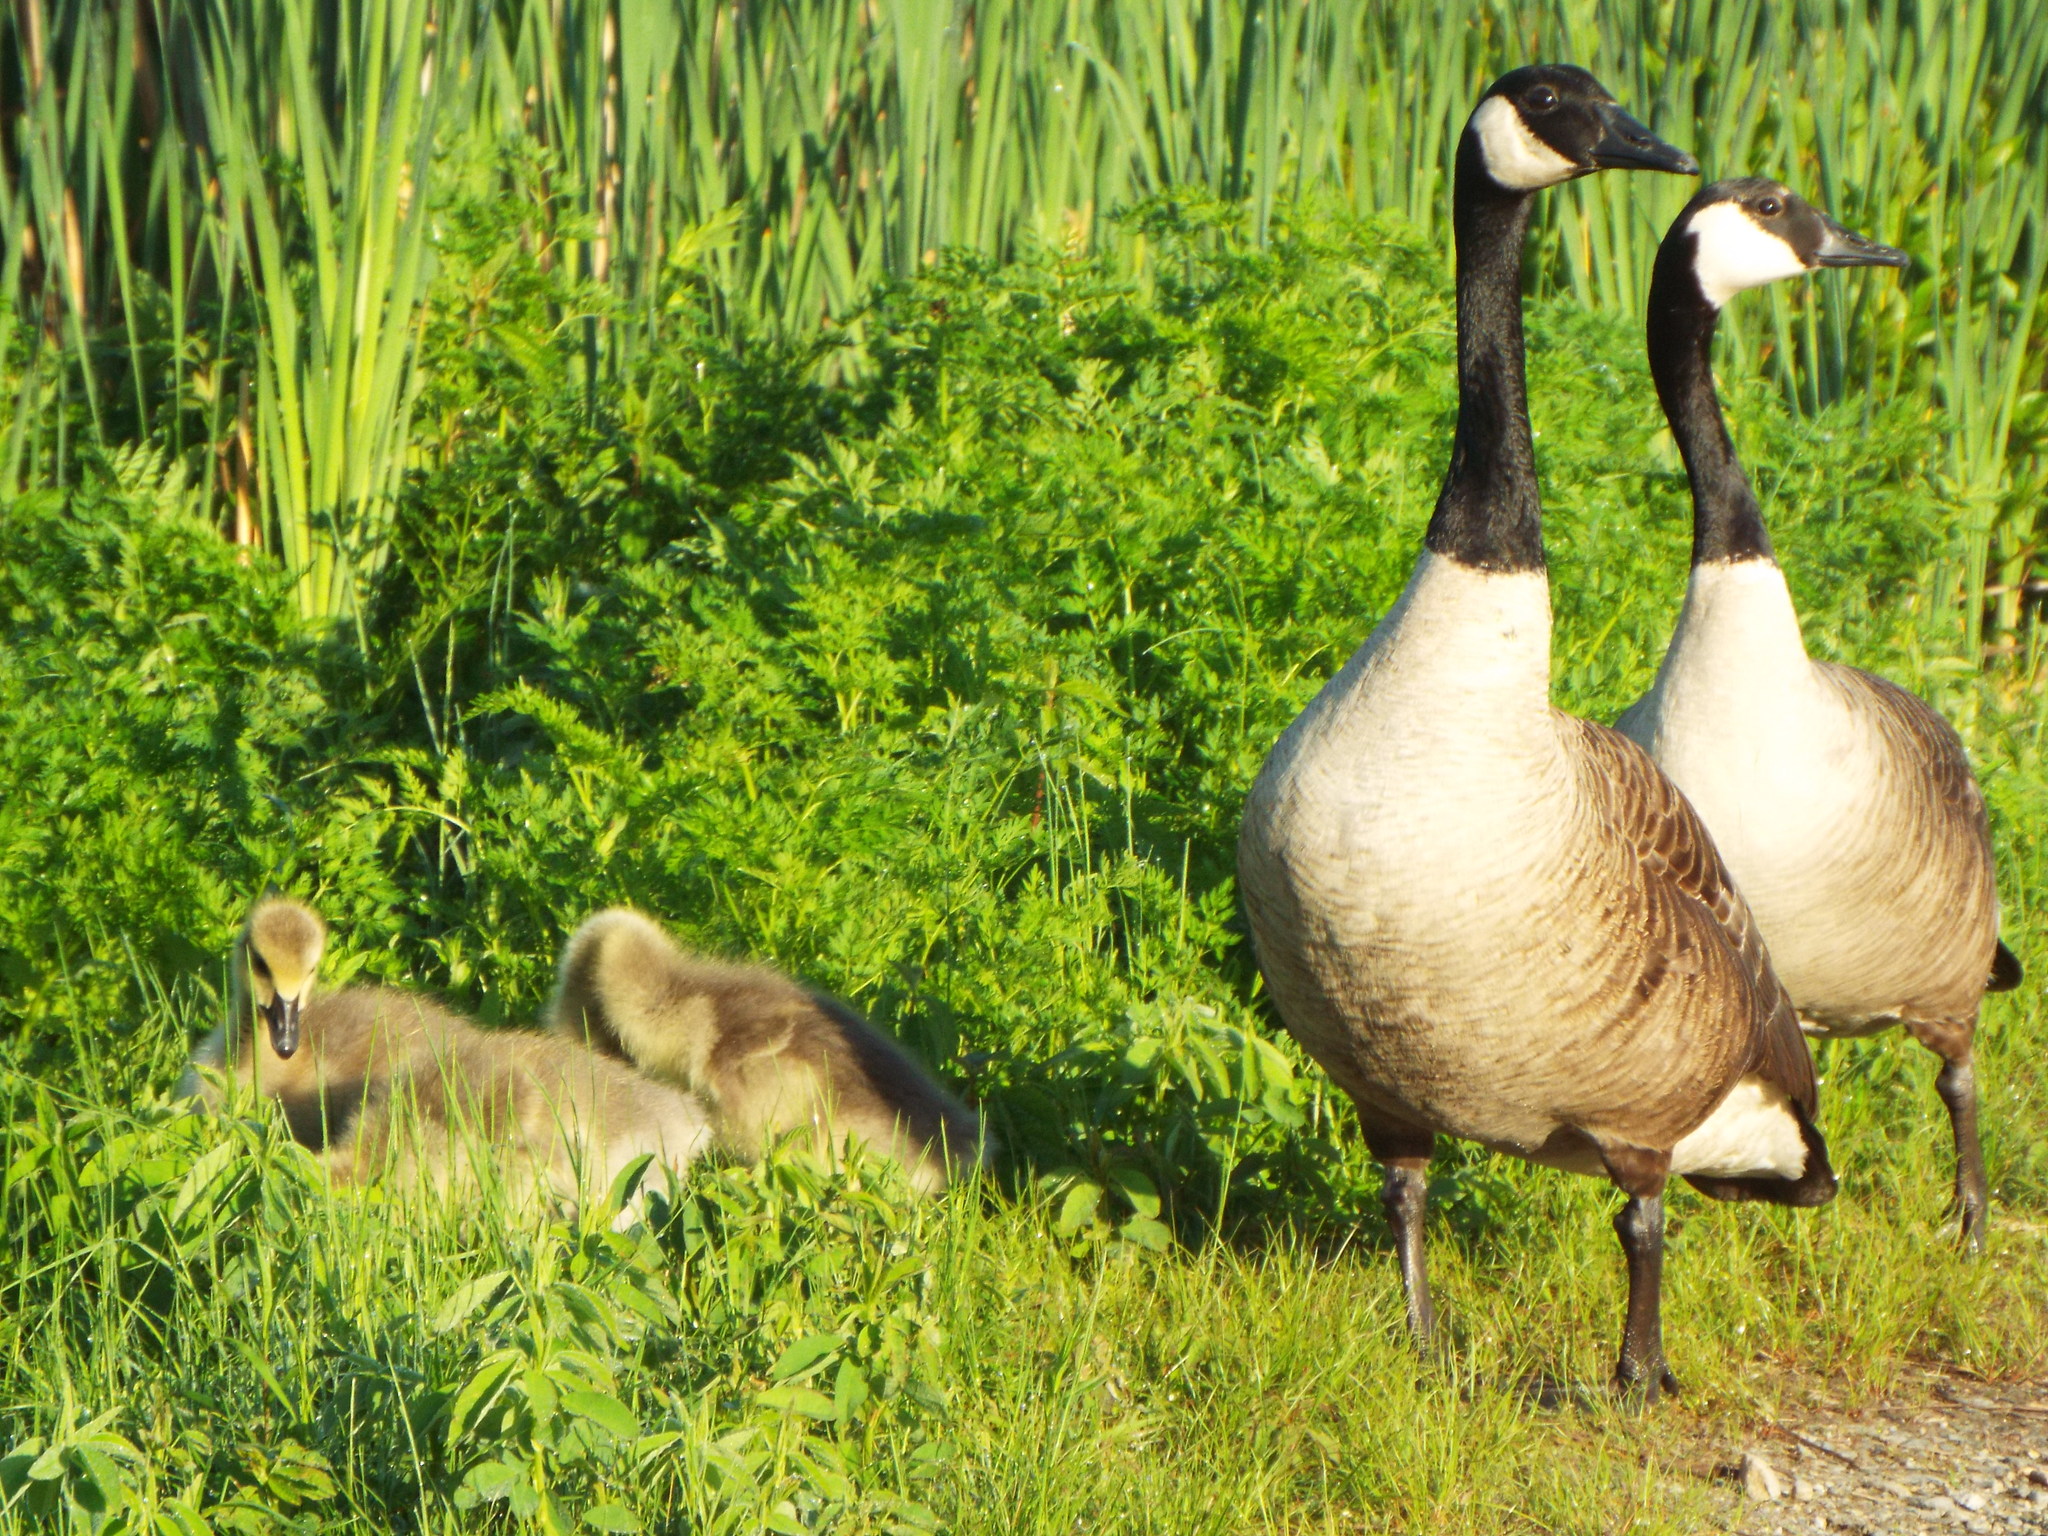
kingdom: Animalia
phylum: Chordata
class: Aves
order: Anseriformes
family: Anatidae
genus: Branta
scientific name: Branta canadensis
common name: Canada goose
